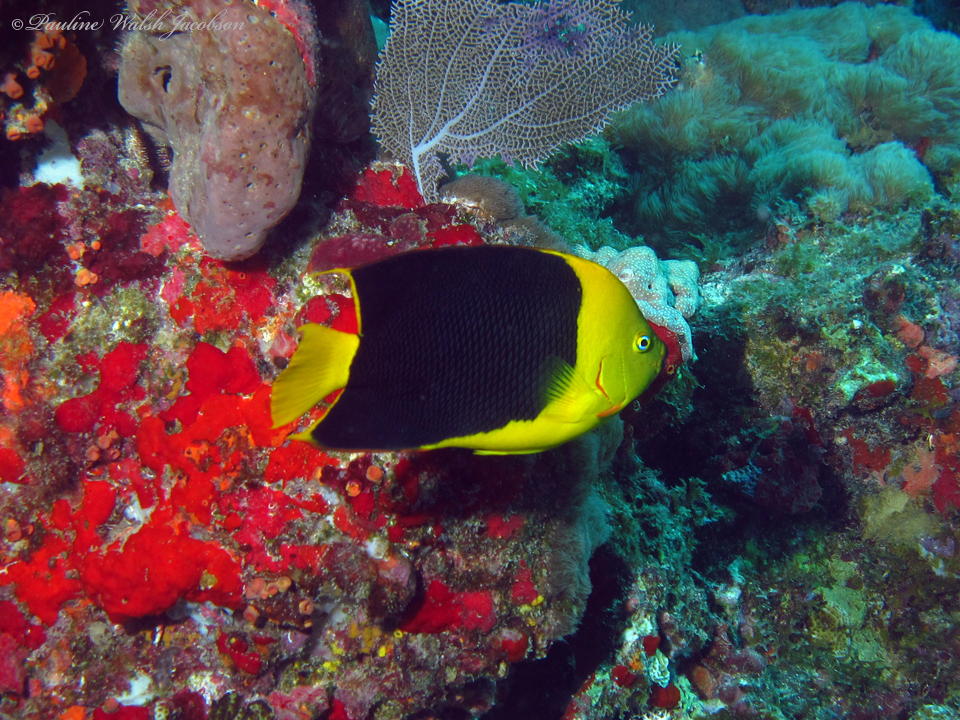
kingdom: Animalia
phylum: Chordata
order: Perciformes
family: Pomacanthidae
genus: Holacanthus
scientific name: Holacanthus tricolor
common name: Rock beauty
